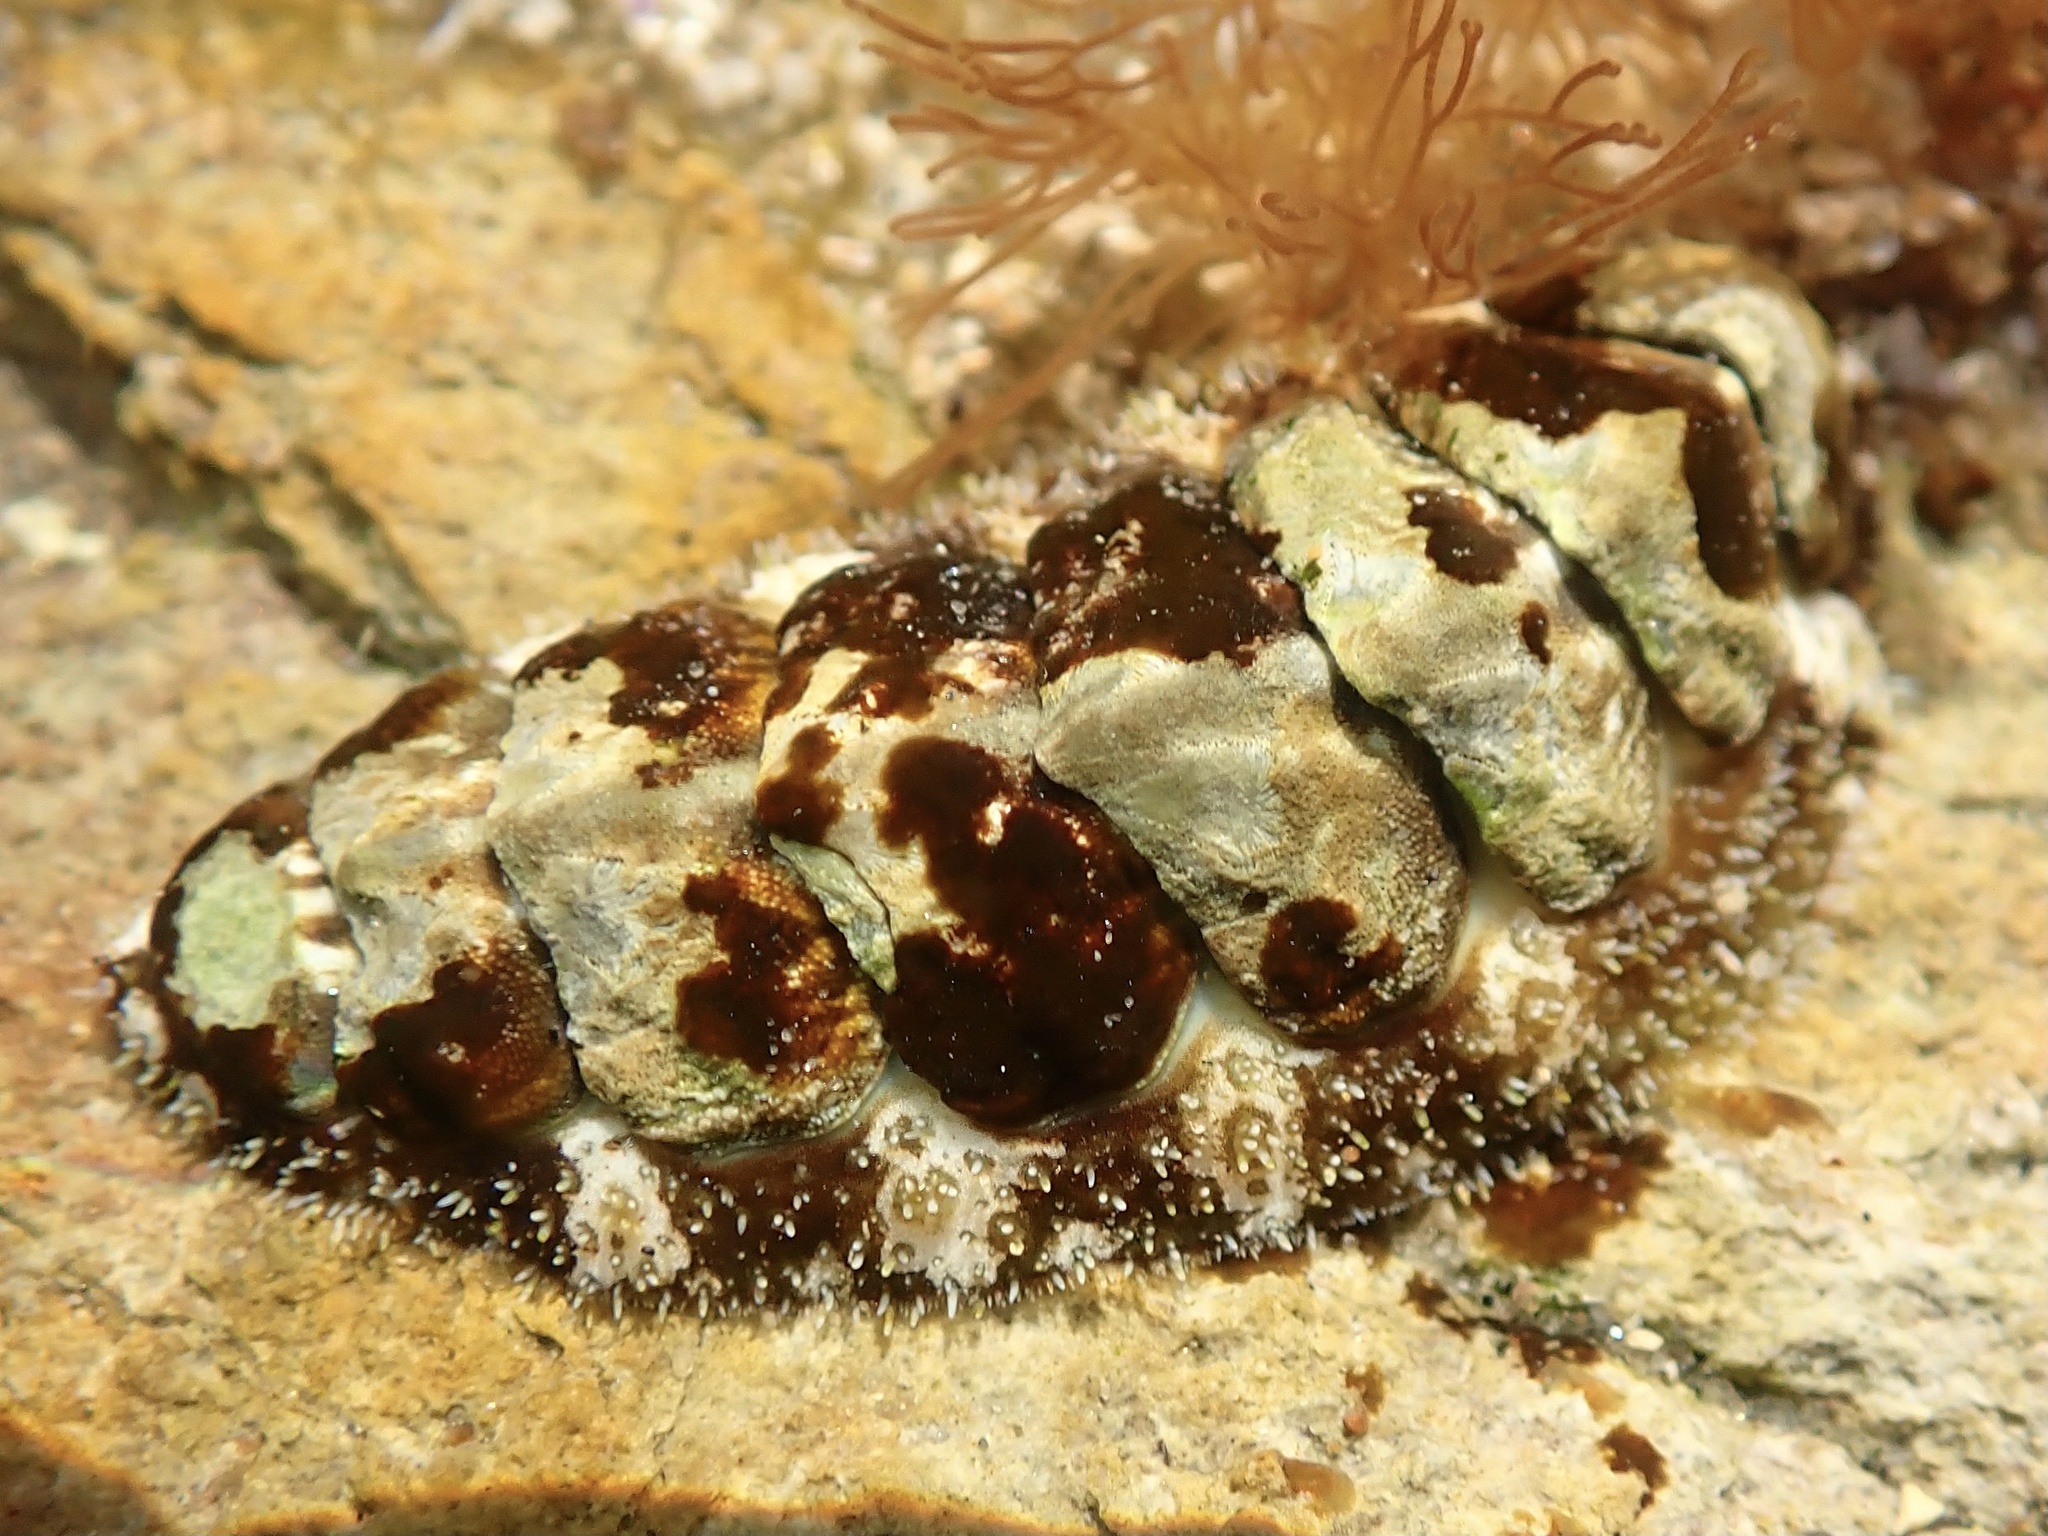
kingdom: Animalia
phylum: Mollusca
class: Polyplacophora
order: Chitonida
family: Tonicellidae
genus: Nuttallina
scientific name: Nuttallina californica
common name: California nuttall chiton
